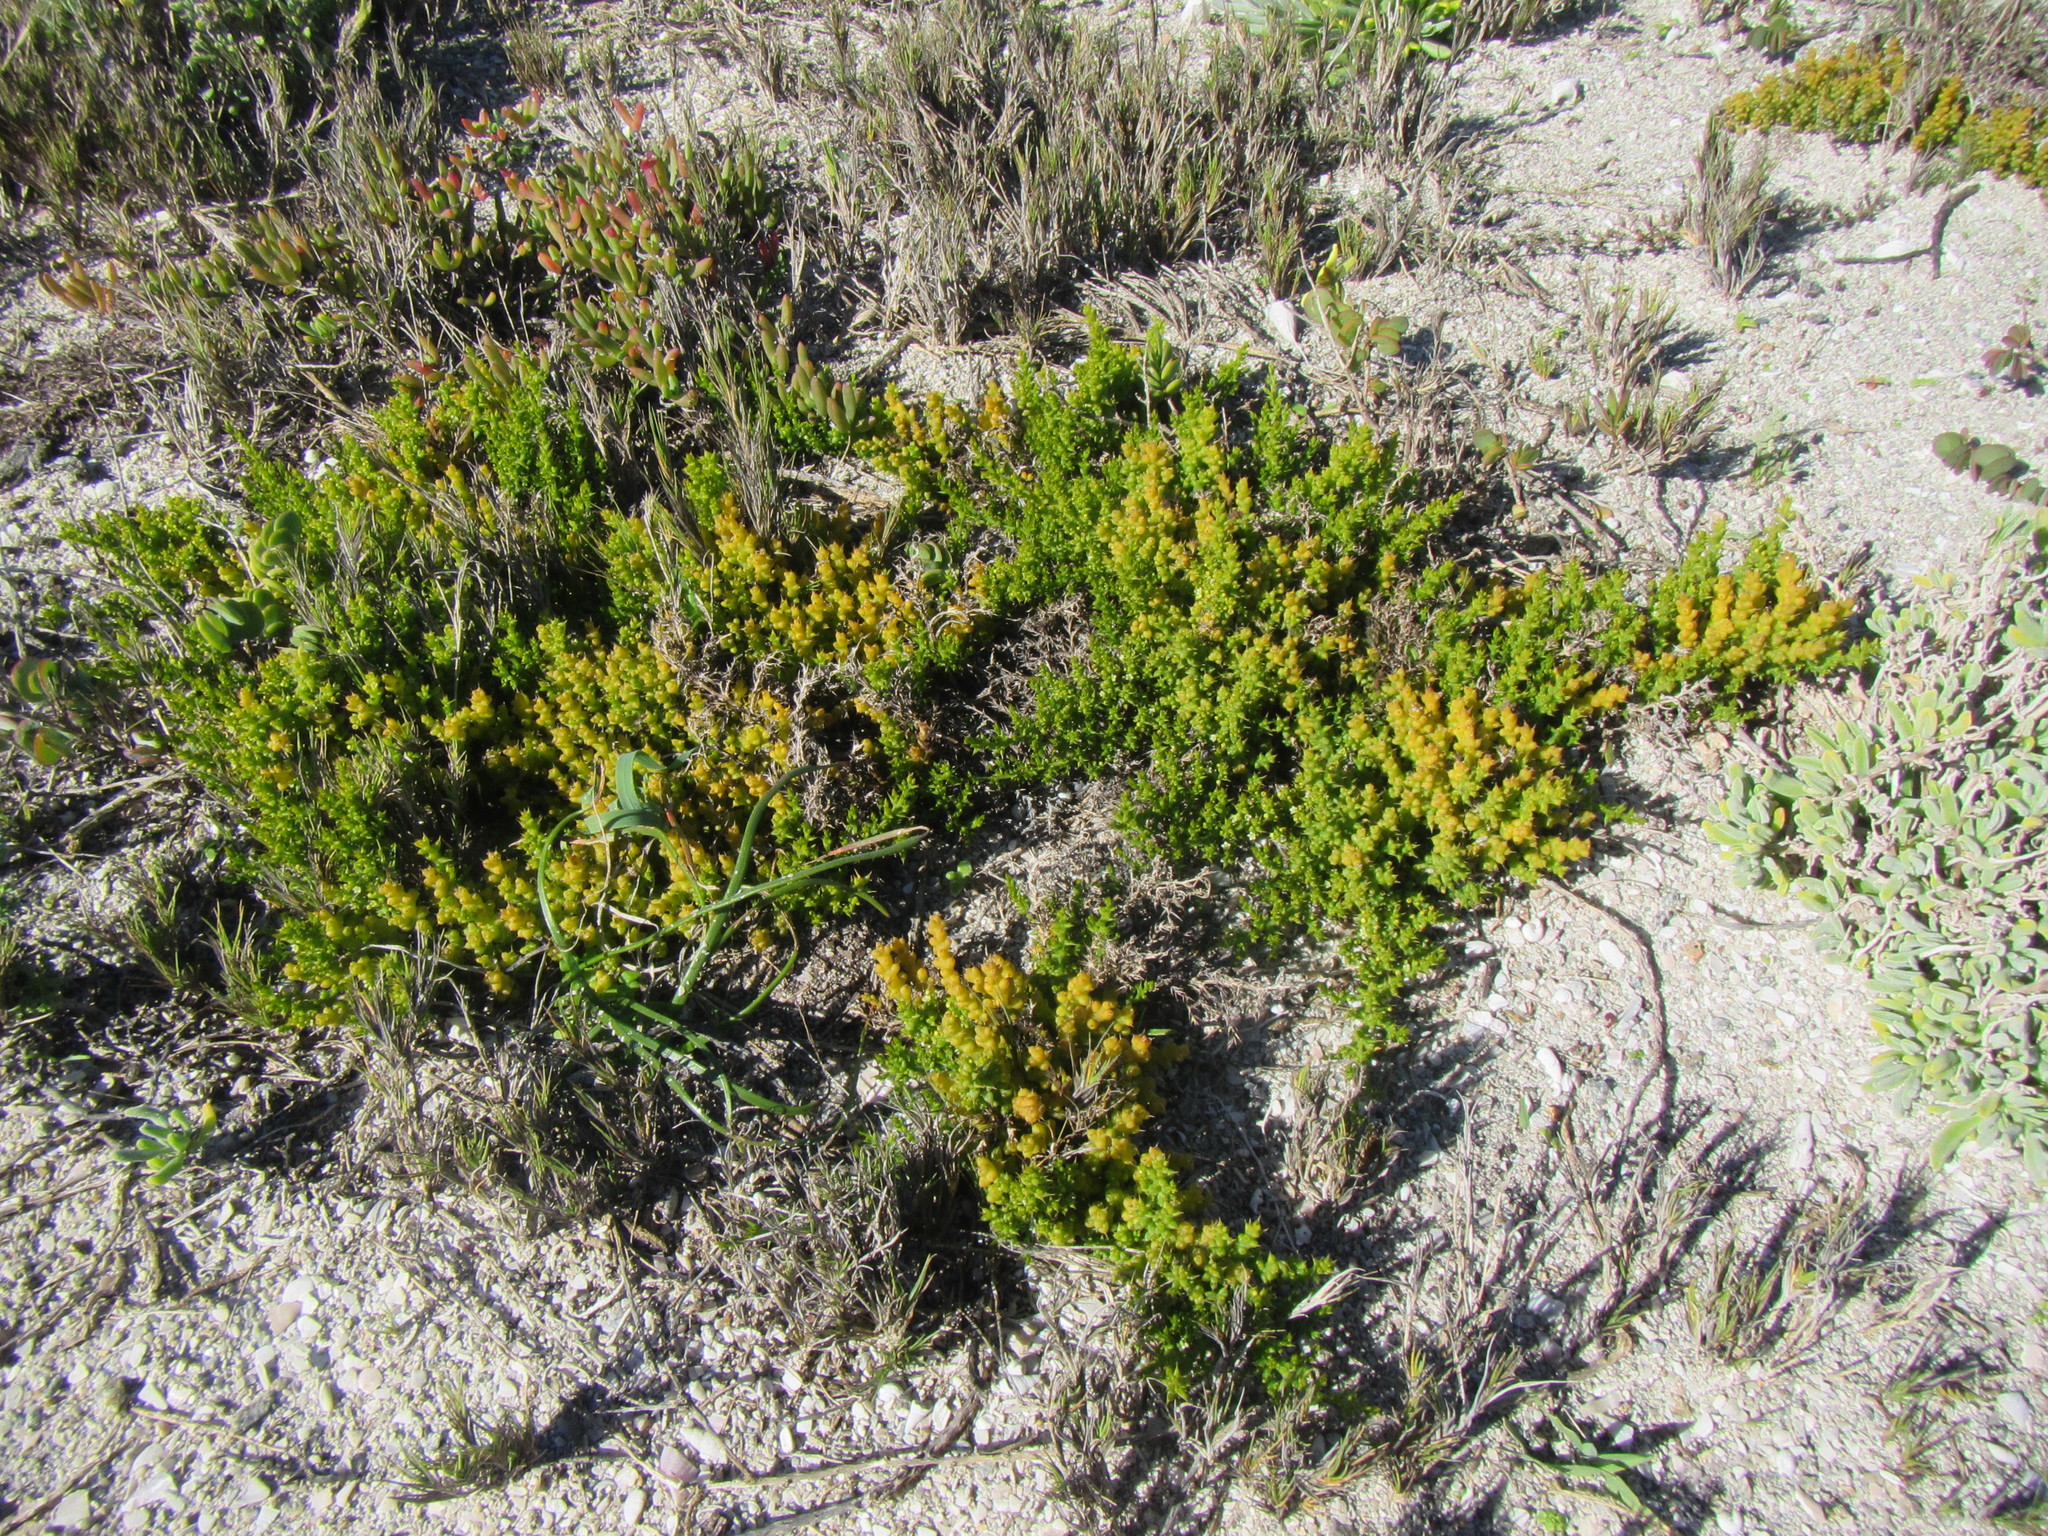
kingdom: Plantae
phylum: Tracheophyta
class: Magnoliopsida
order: Santalales
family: Thesiaceae
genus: Thesium
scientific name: Thesium spinosum
